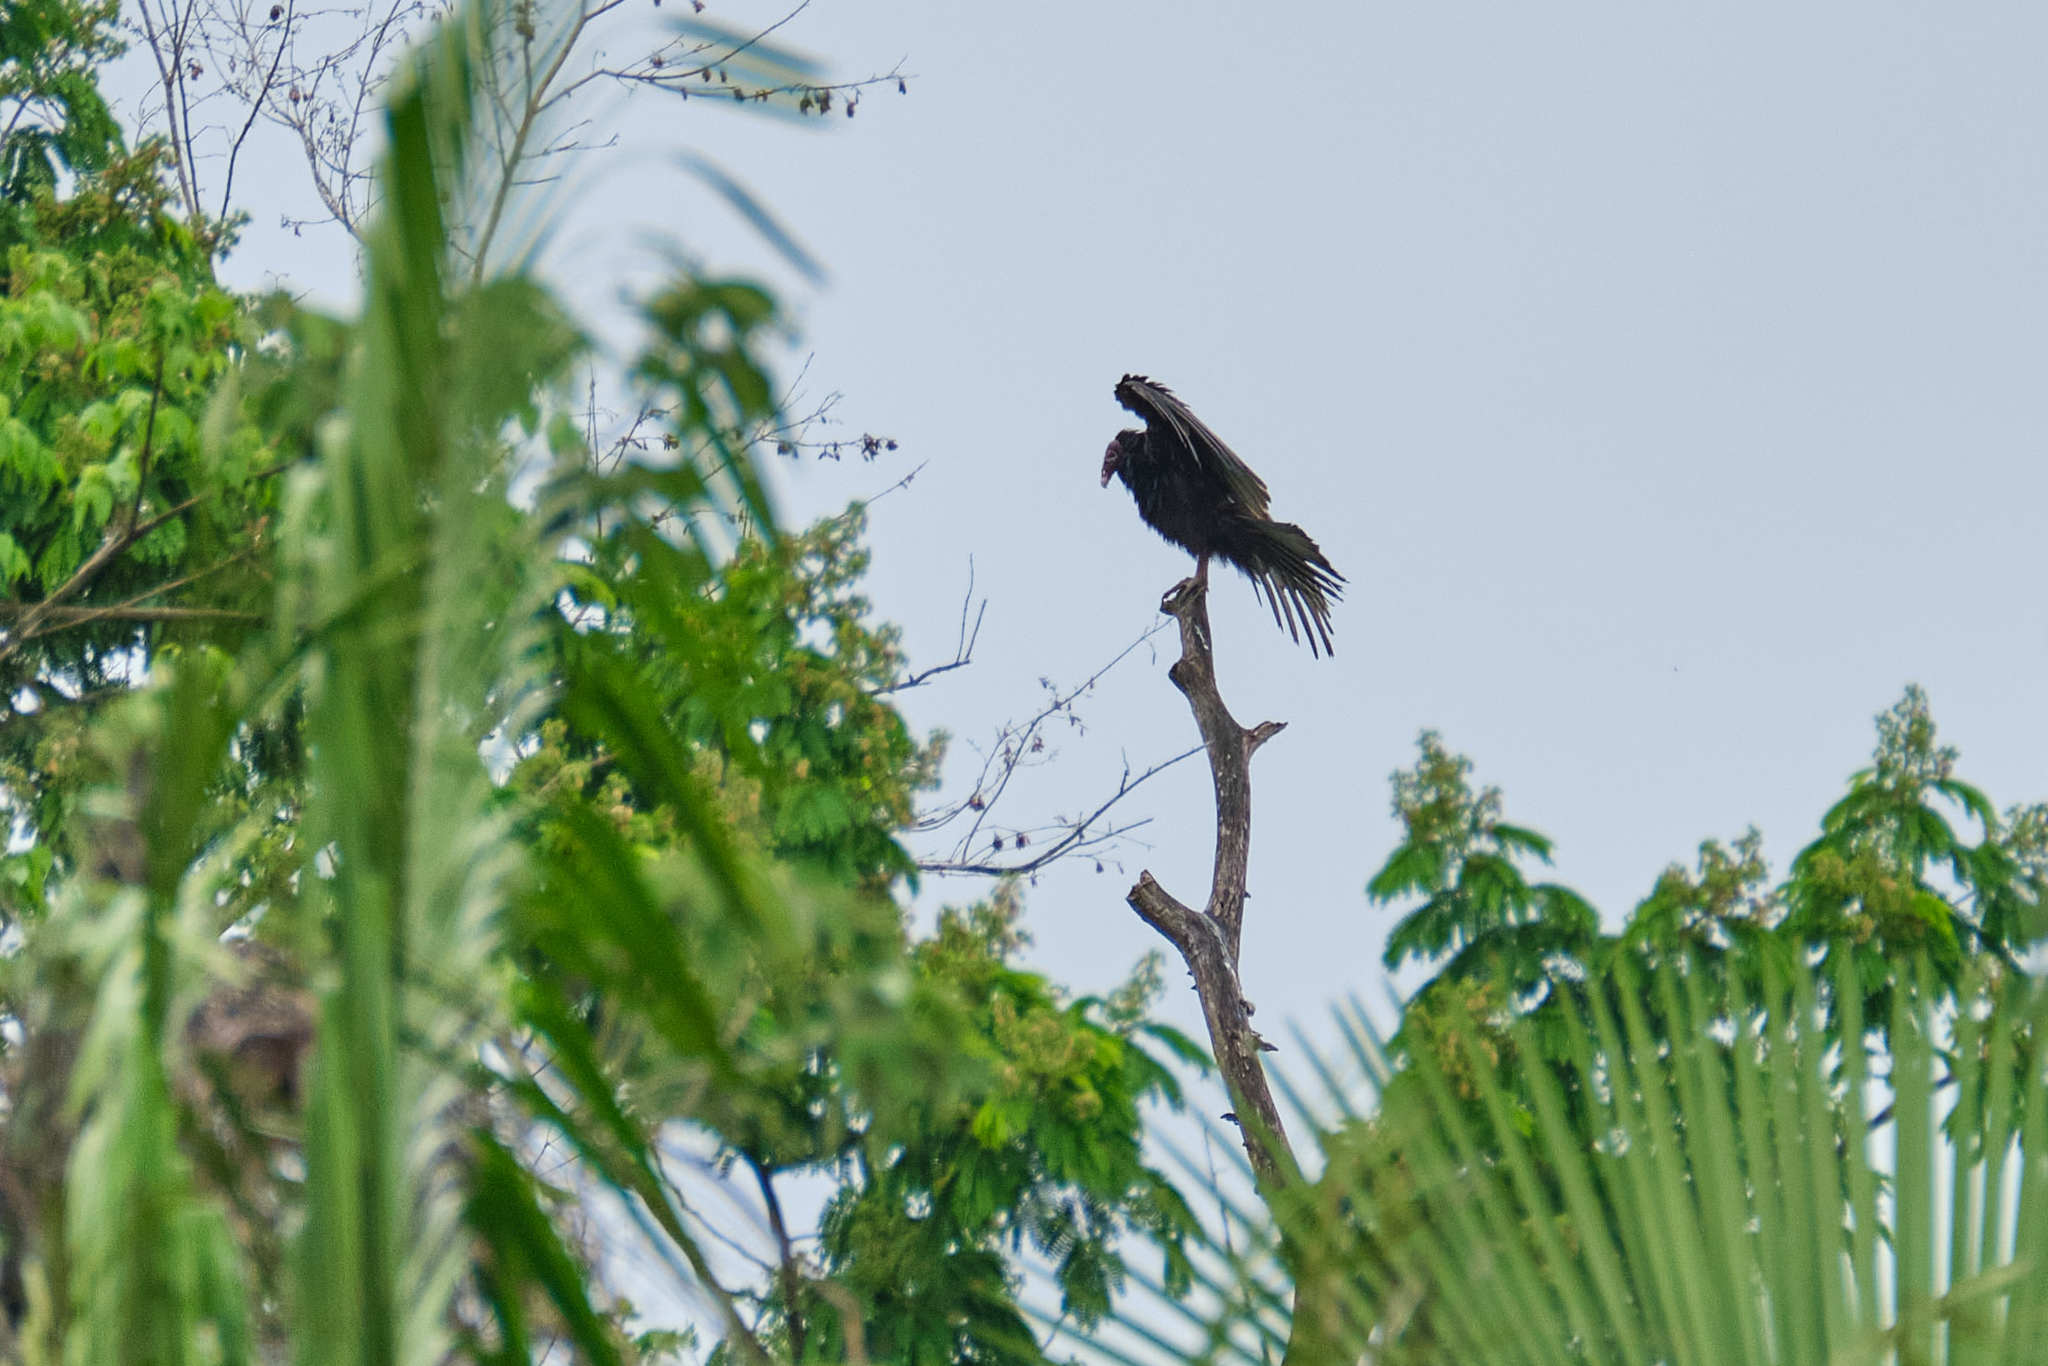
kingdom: Animalia
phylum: Chordata
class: Aves
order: Accipitriformes
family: Cathartidae
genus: Cathartes
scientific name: Cathartes aura
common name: Turkey vulture
